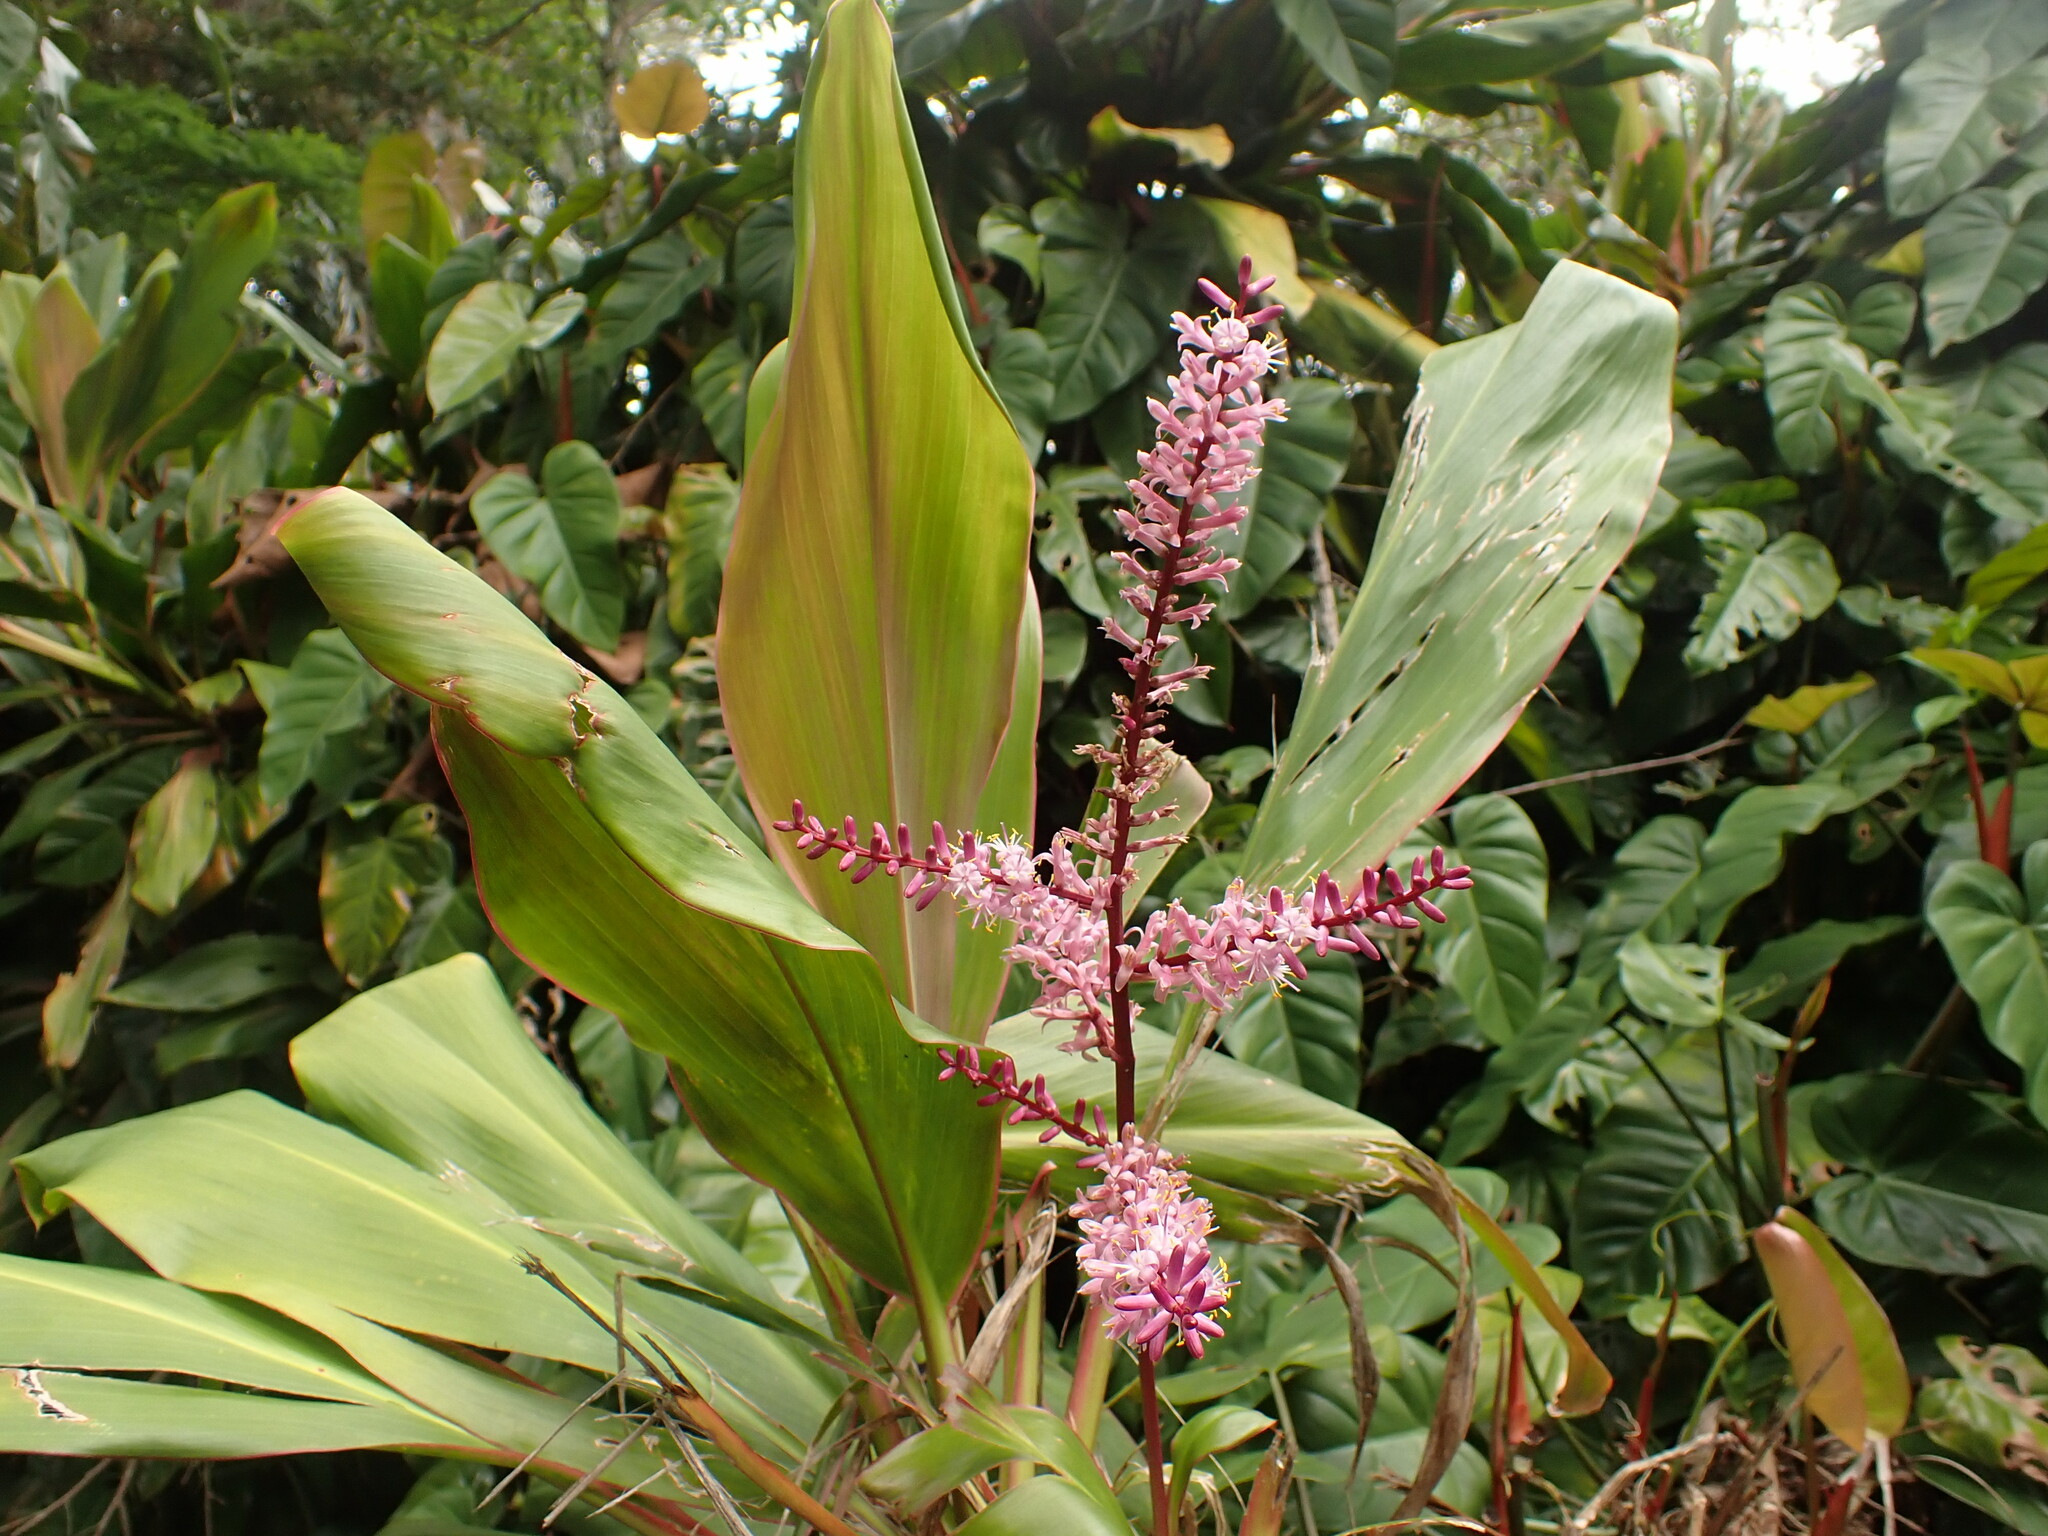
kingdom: Plantae
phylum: Tracheophyta
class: Liliopsida
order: Asparagales
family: Asparagaceae
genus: Cordyline
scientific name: Cordyline fruticosa
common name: Good-luck-plant
